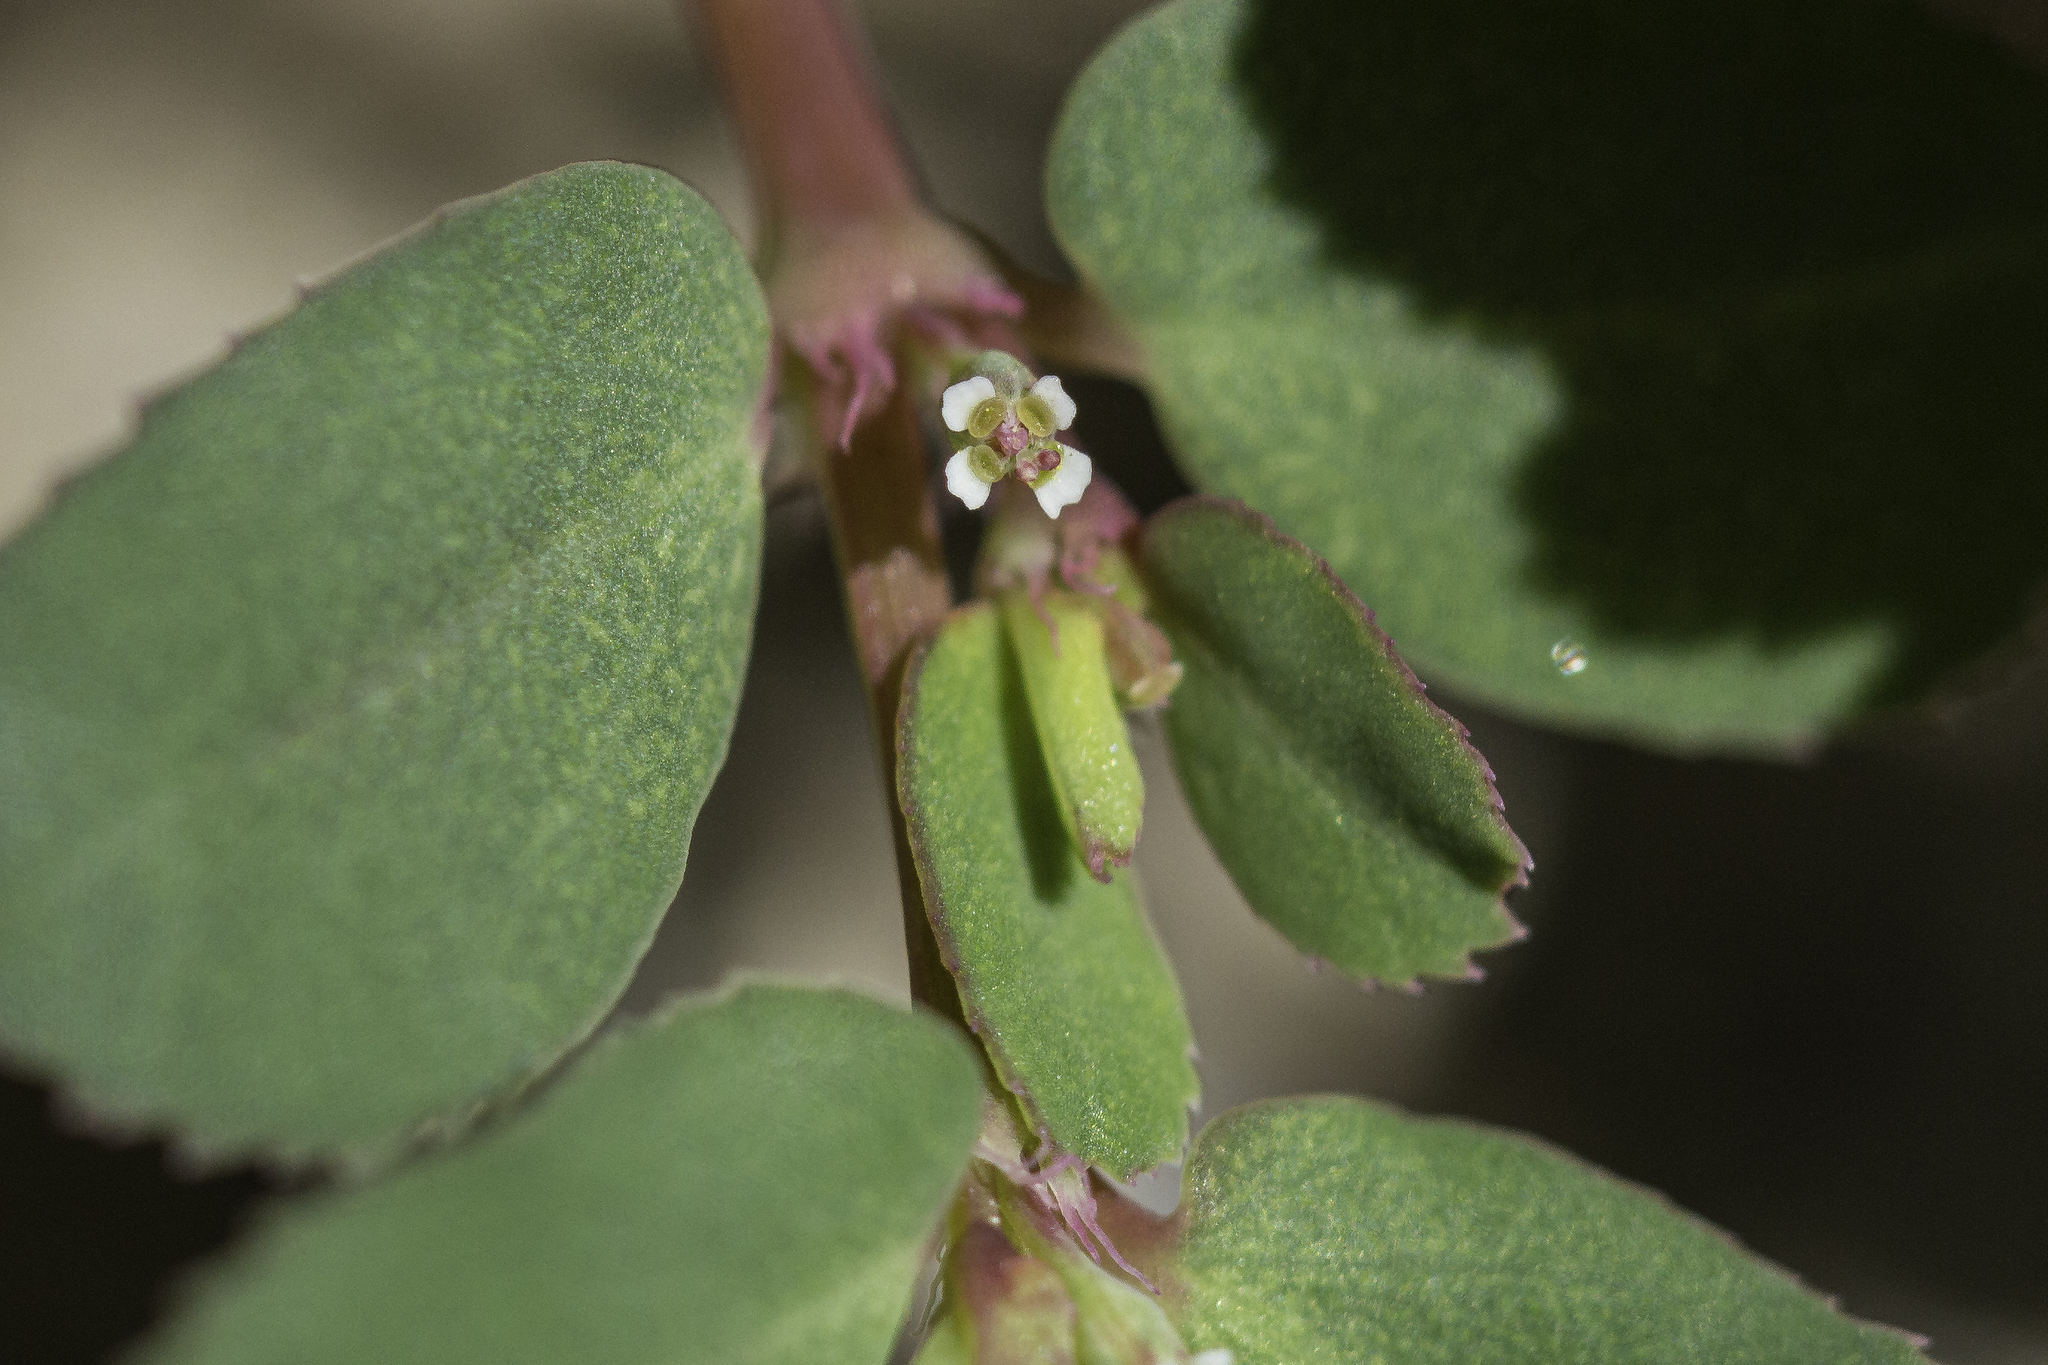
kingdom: Plantae
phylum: Tracheophyta
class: Magnoliopsida
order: Malpighiales
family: Euphorbiaceae
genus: Euphorbia
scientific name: Euphorbia serpillifolia
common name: Thyme-leaf spurge
